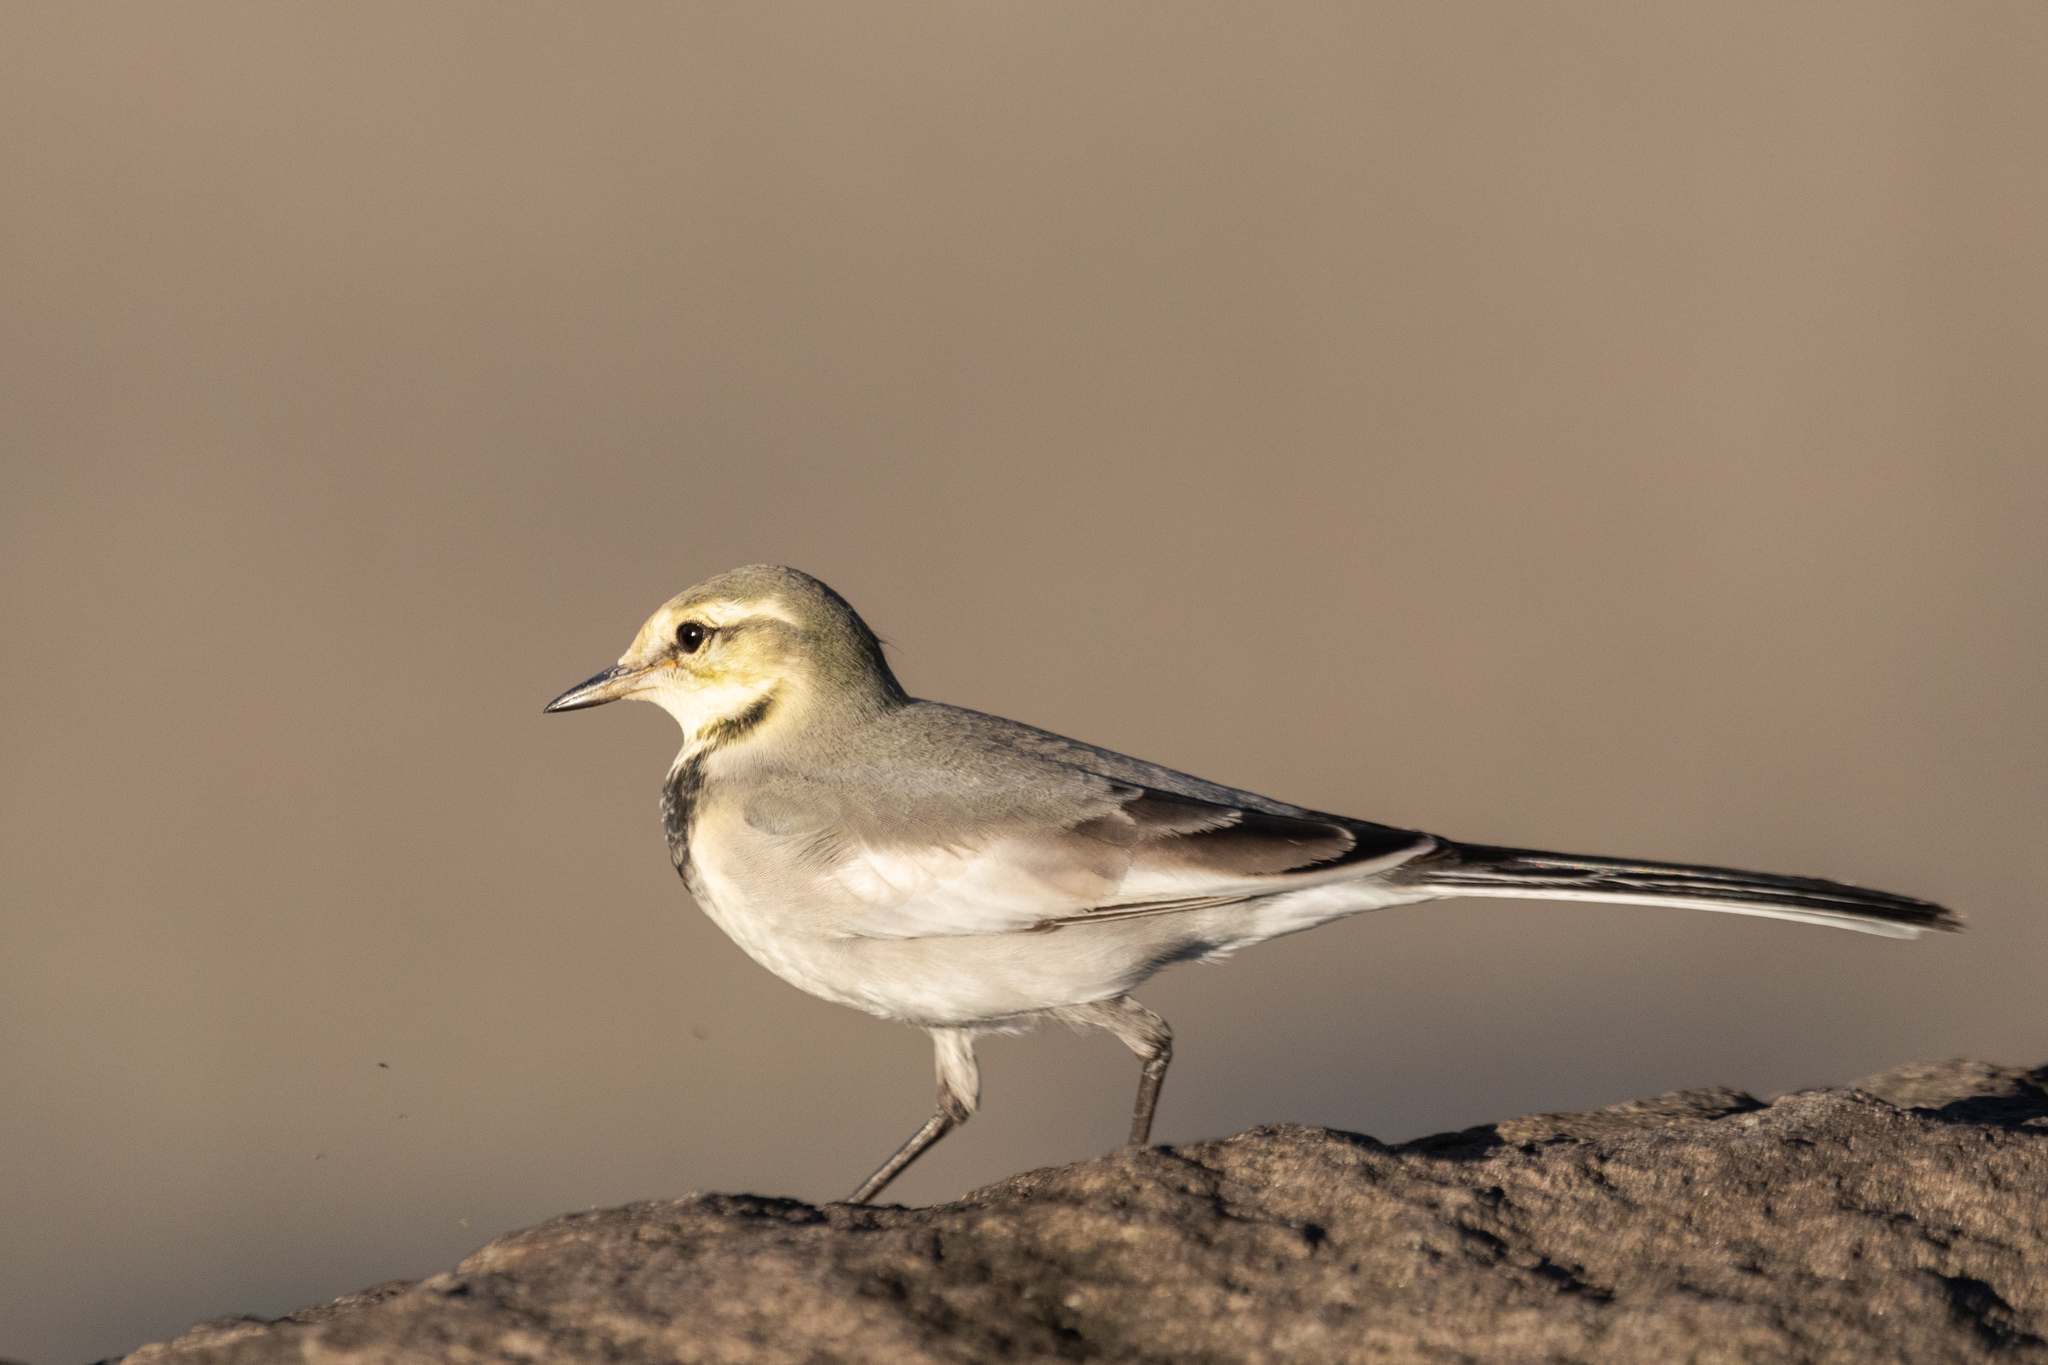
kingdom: Animalia
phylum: Chordata
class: Aves
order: Passeriformes
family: Motacillidae
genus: Motacilla
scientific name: Motacilla alba
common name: White wagtail
